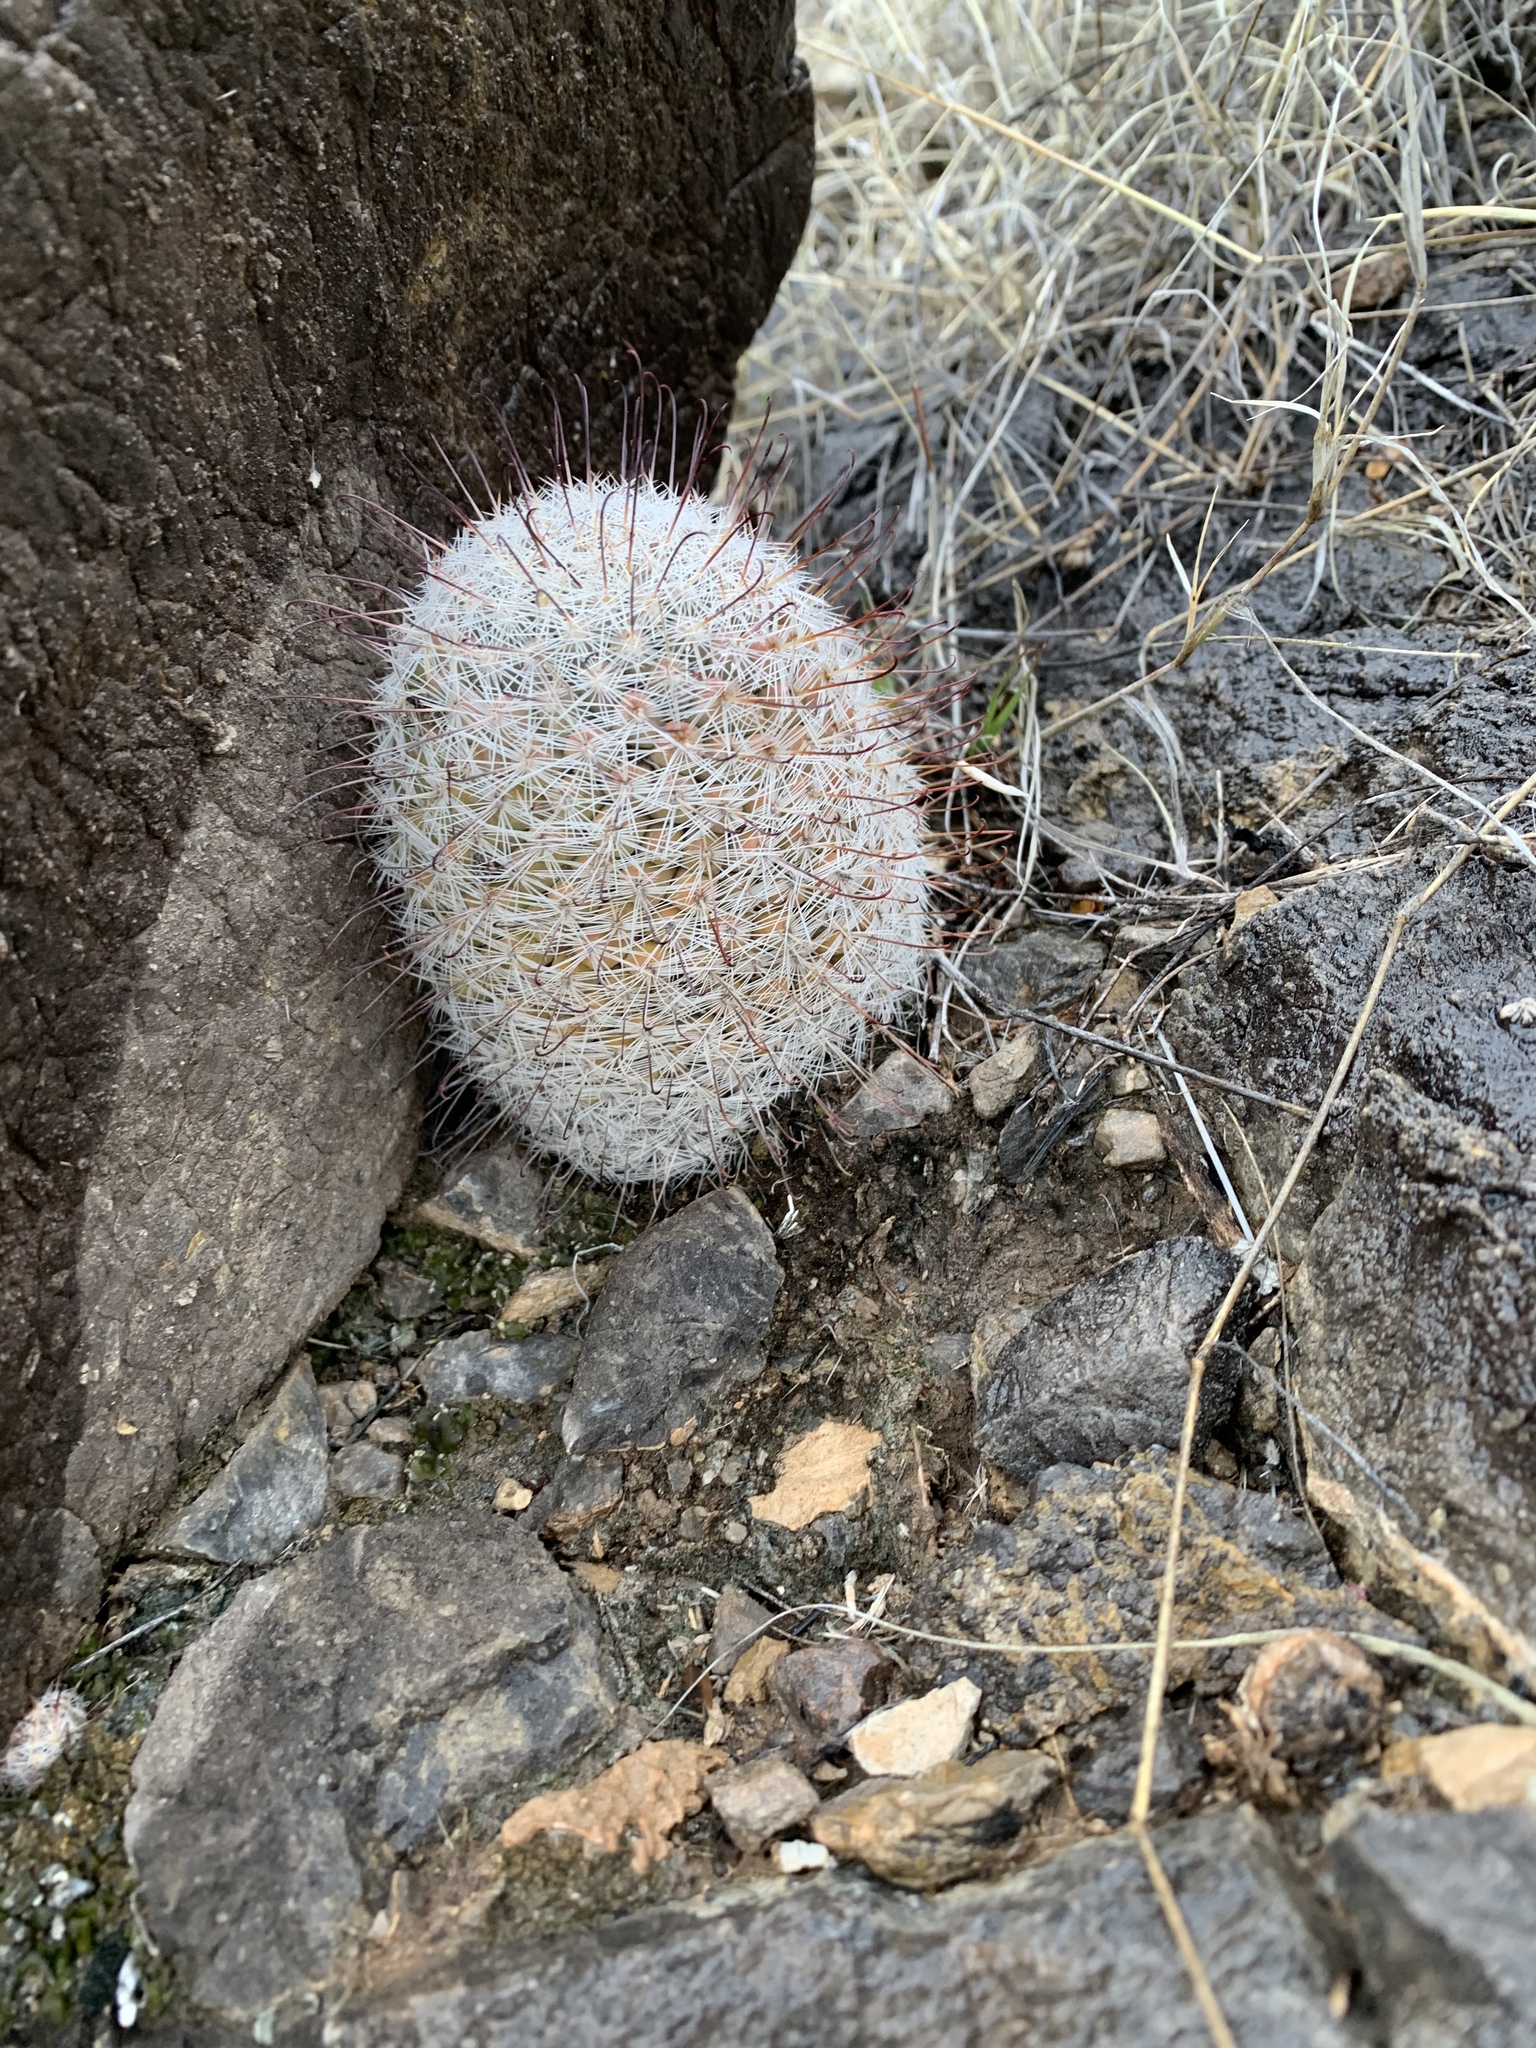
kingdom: Plantae
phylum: Tracheophyta
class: Magnoliopsida
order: Caryophyllales
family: Cactaceae
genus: Cochemiea
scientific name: Cochemiea grahamii
